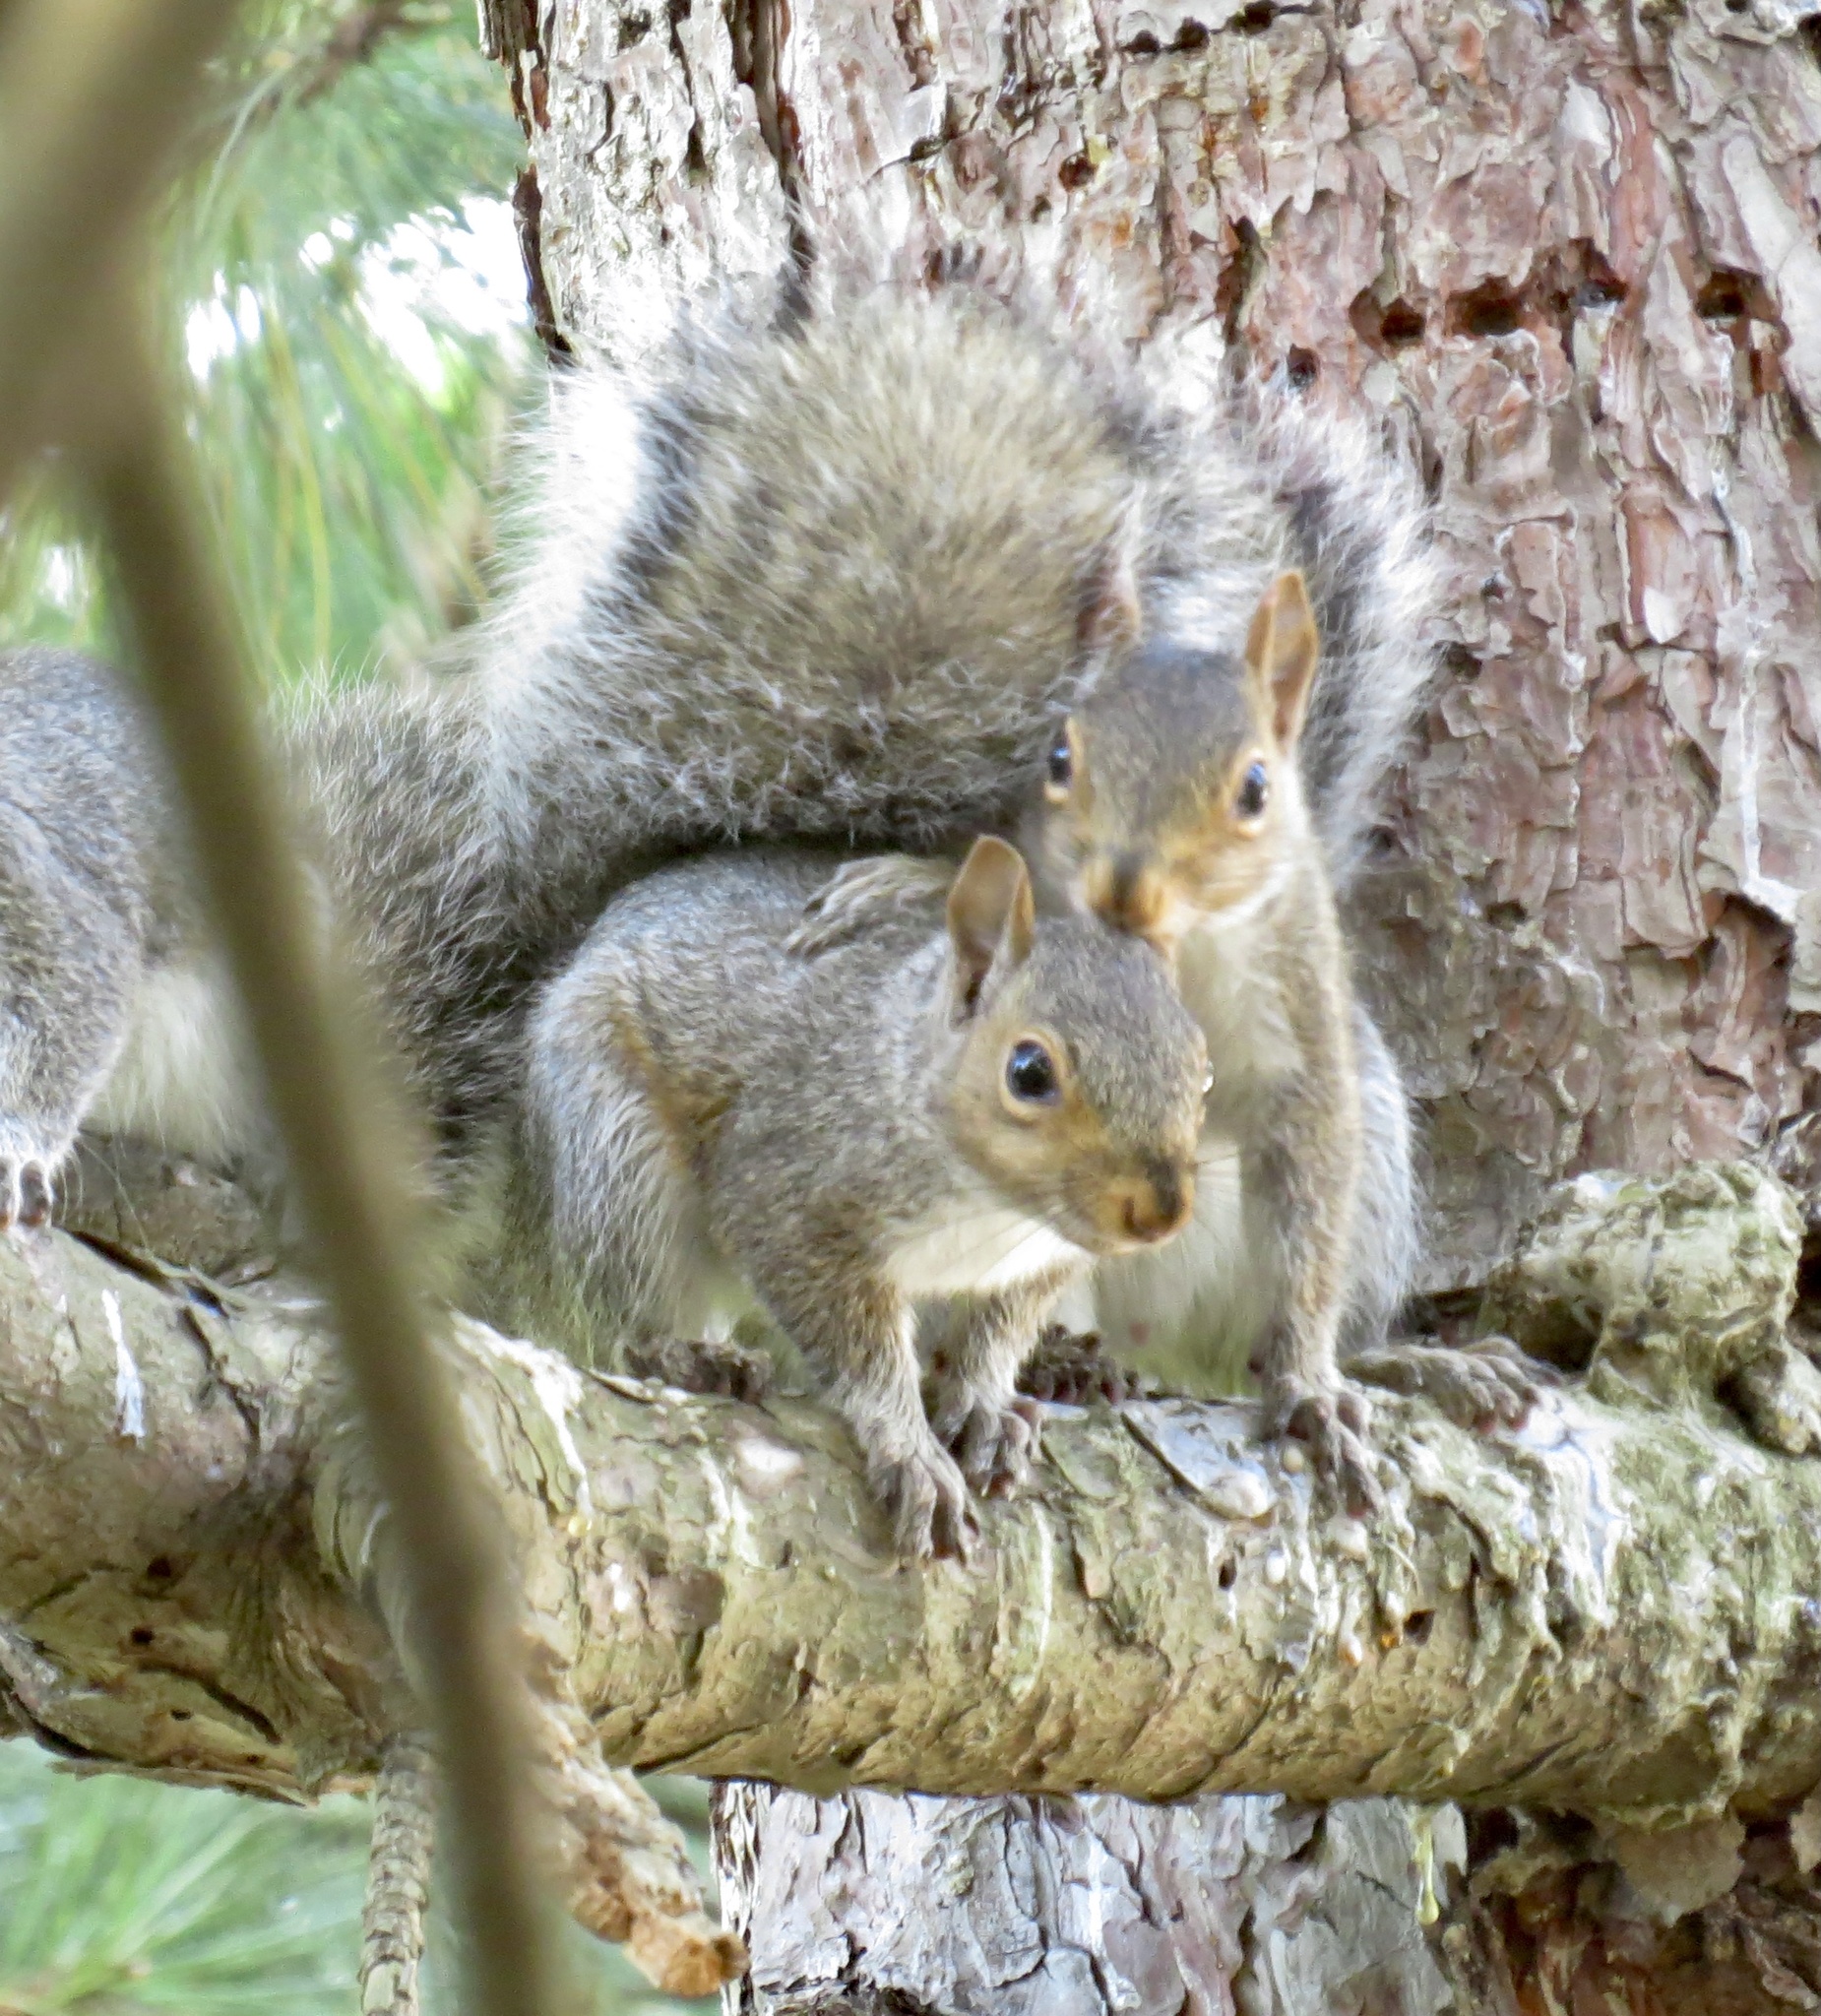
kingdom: Animalia
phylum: Chordata
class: Mammalia
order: Rodentia
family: Sciuridae
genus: Sciurus
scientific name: Sciurus carolinensis
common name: Eastern gray squirrel
